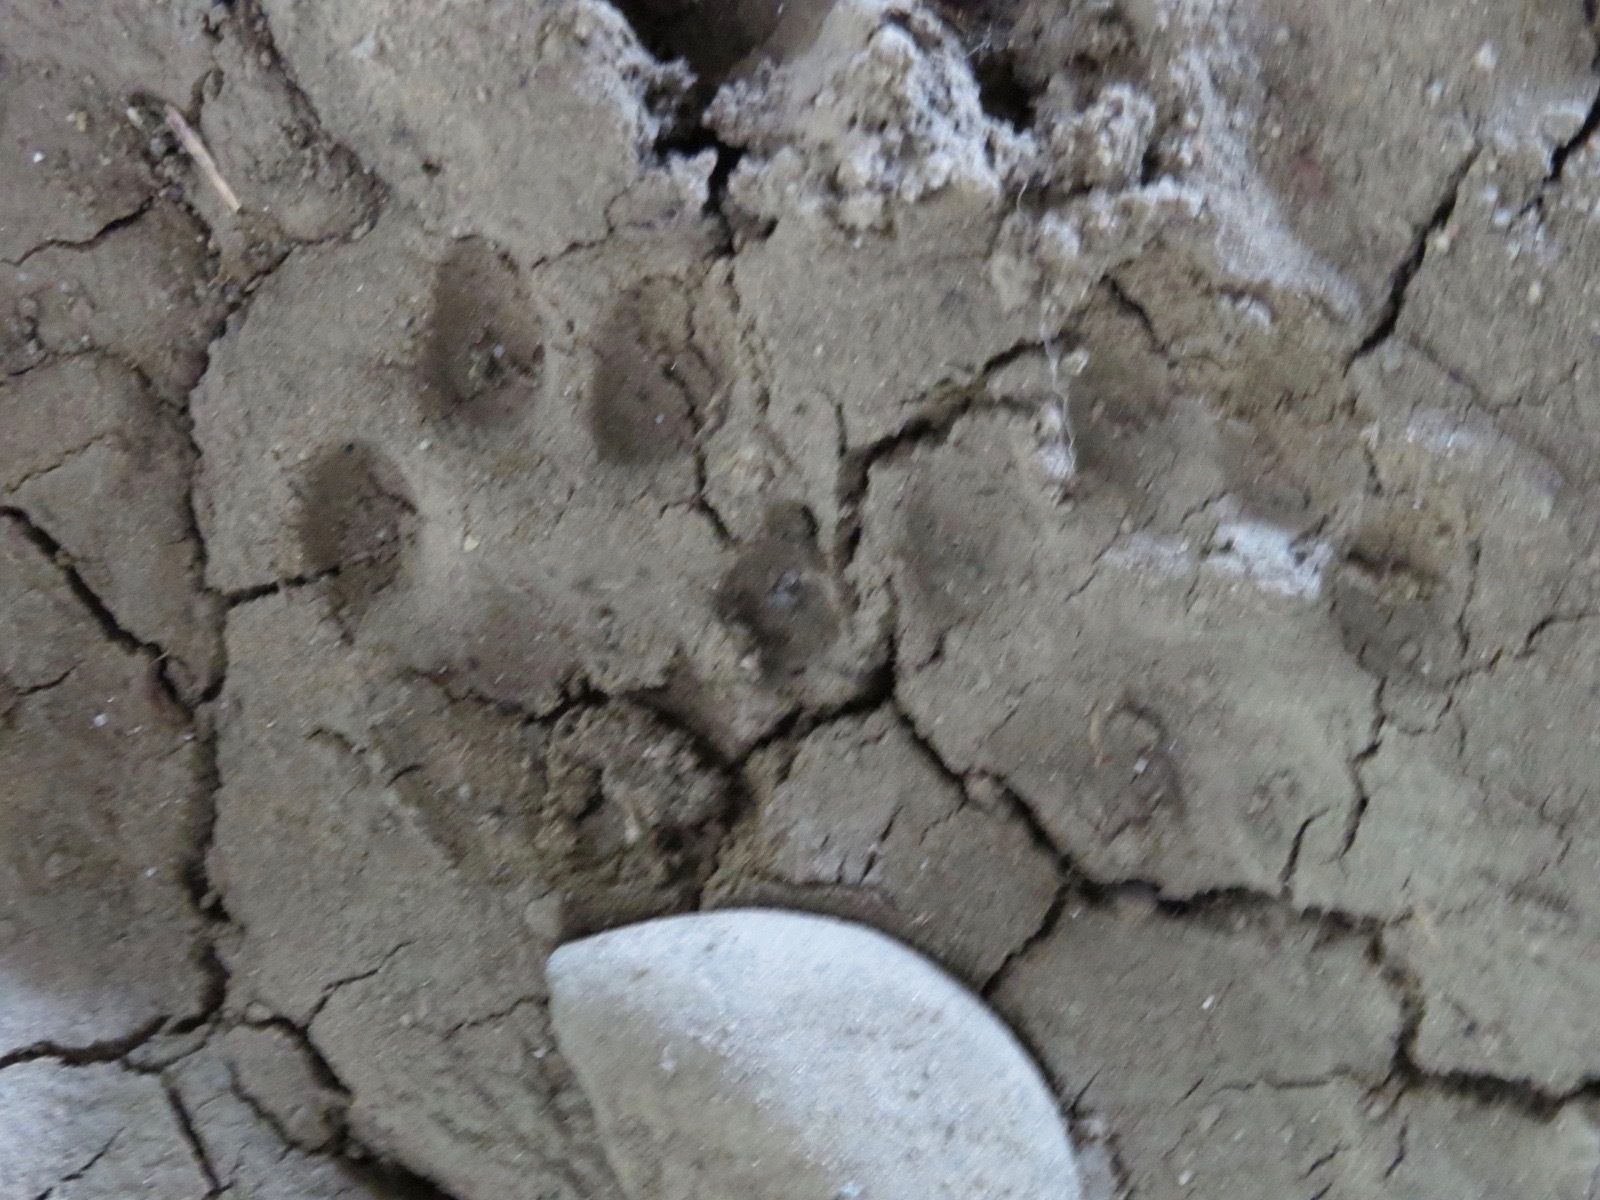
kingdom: Animalia
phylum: Chordata
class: Mammalia
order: Carnivora
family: Felidae
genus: Lynx
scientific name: Lynx rufus
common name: Bobcat
